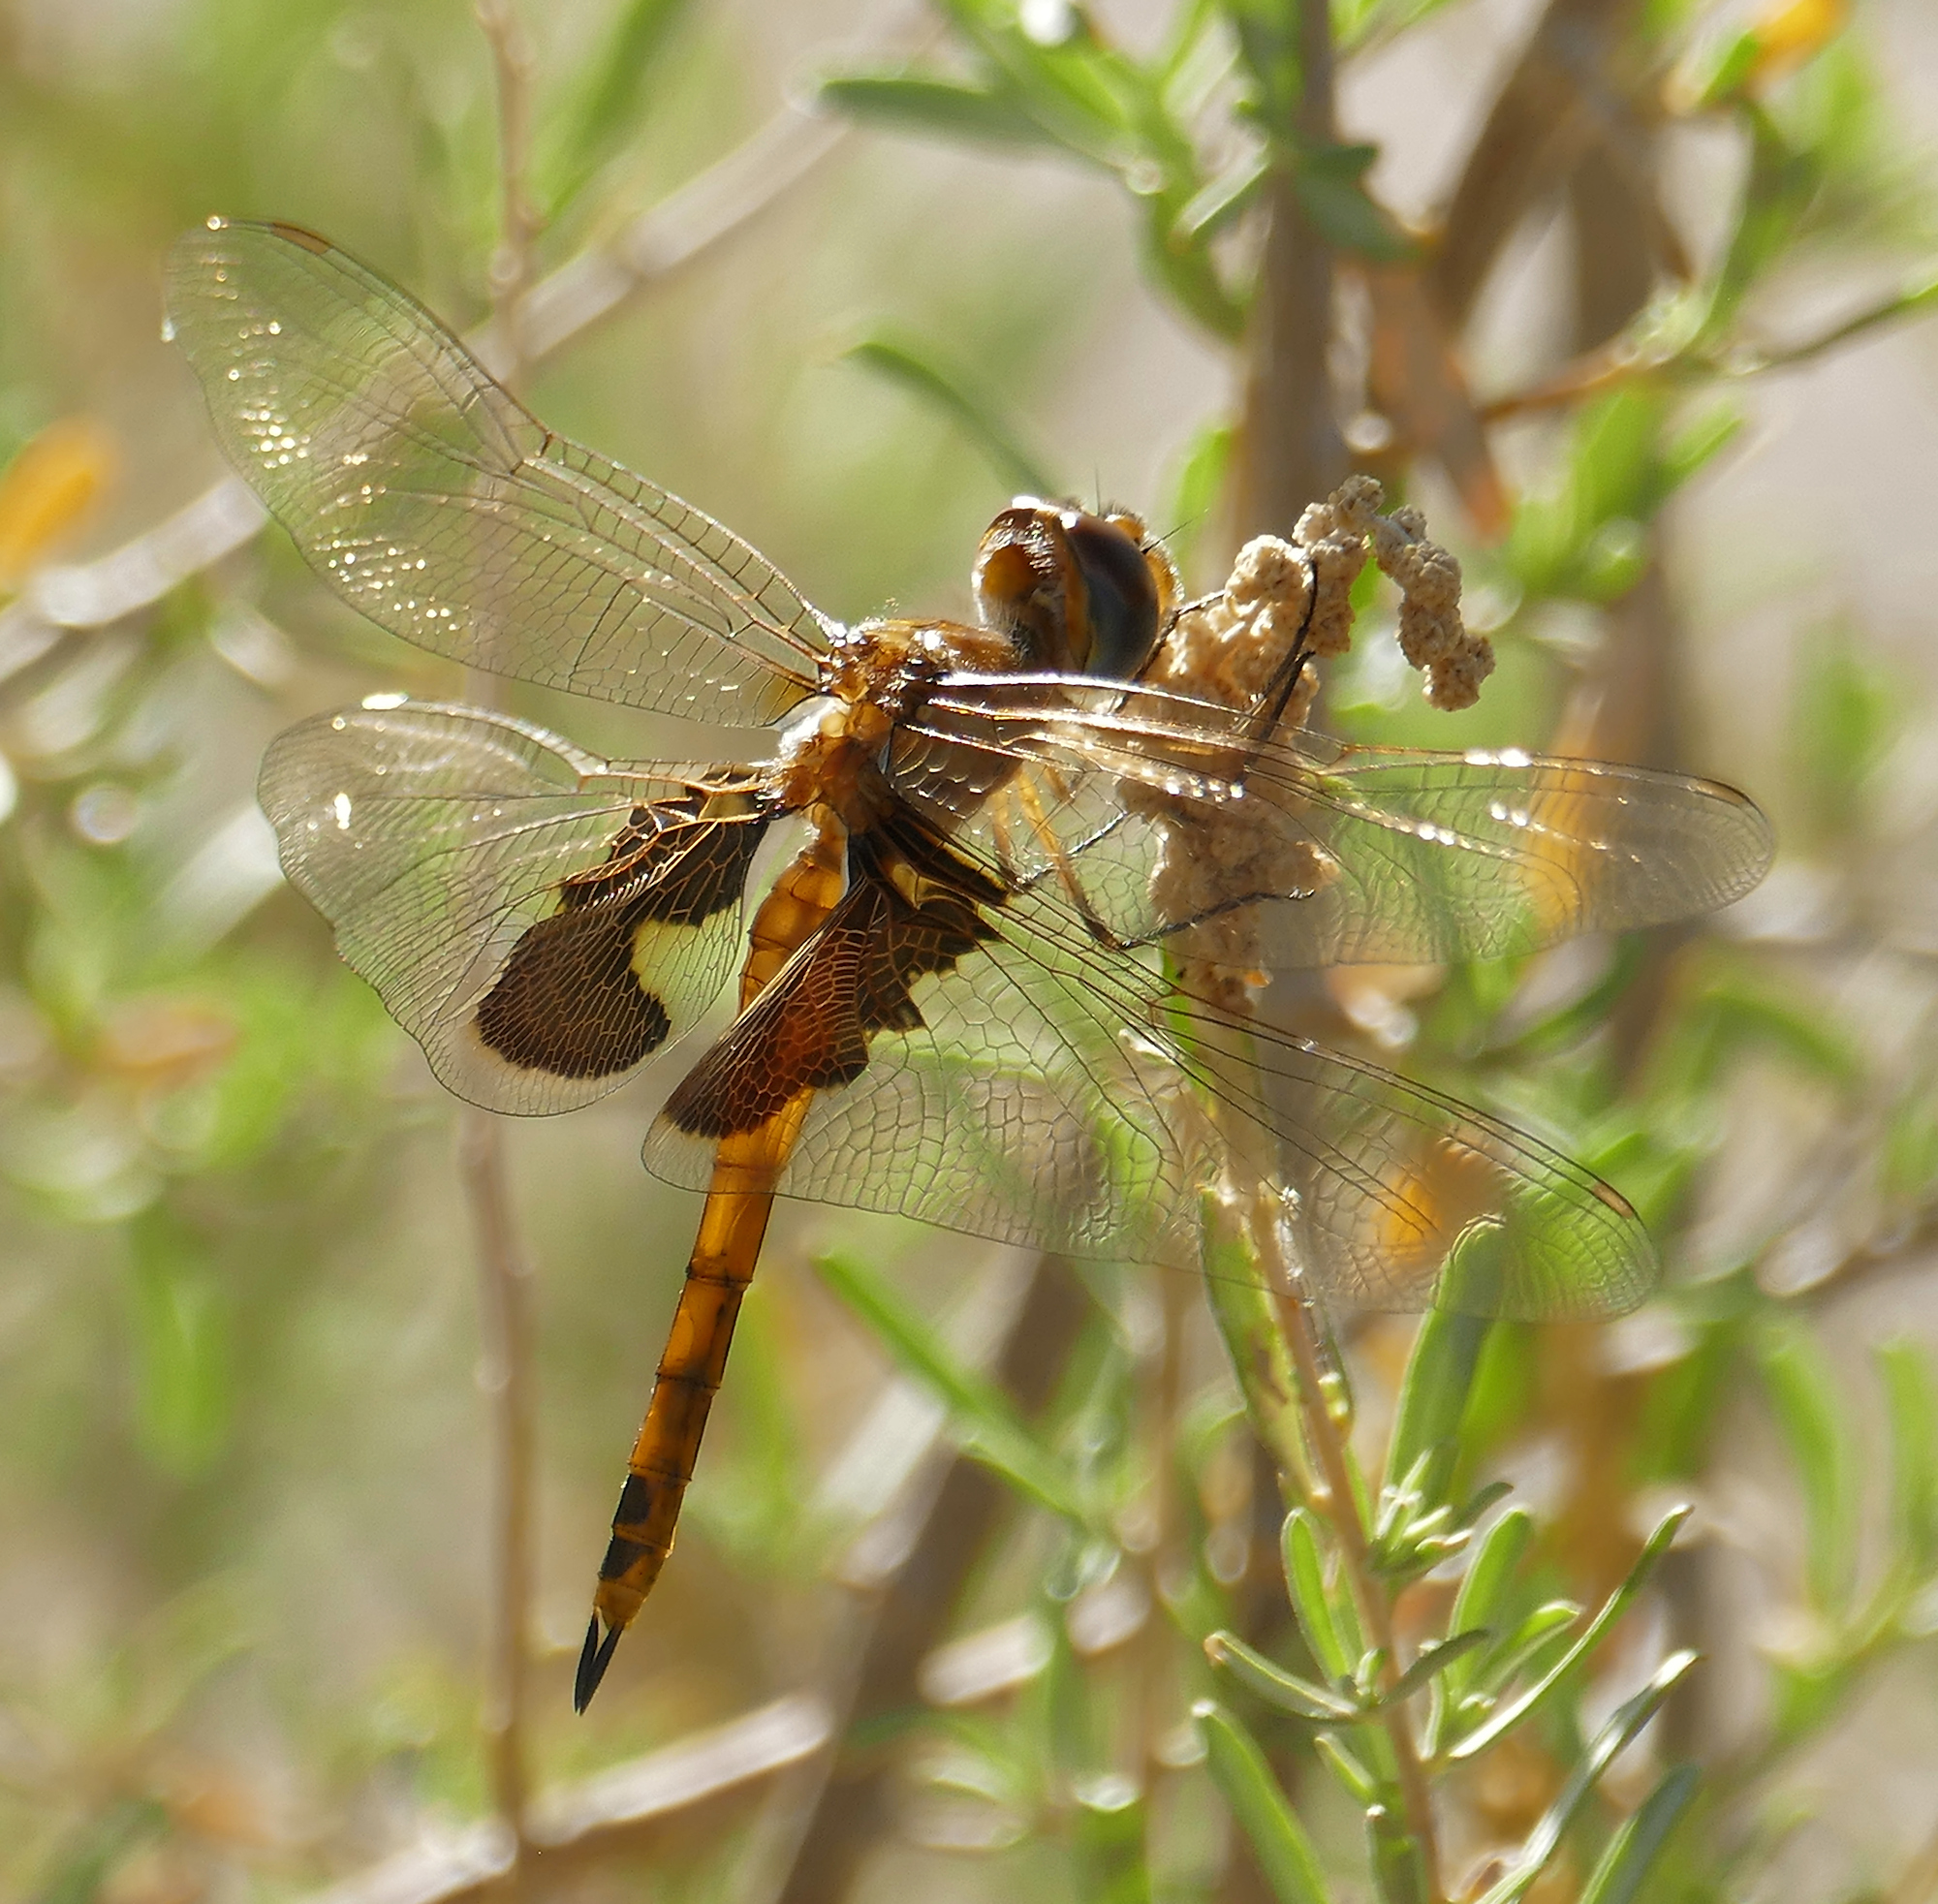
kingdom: Animalia
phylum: Arthropoda
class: Insecta
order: Odonata
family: Libellulidae
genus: Tramea
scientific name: Tramea onusta
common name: Red saddlebags
